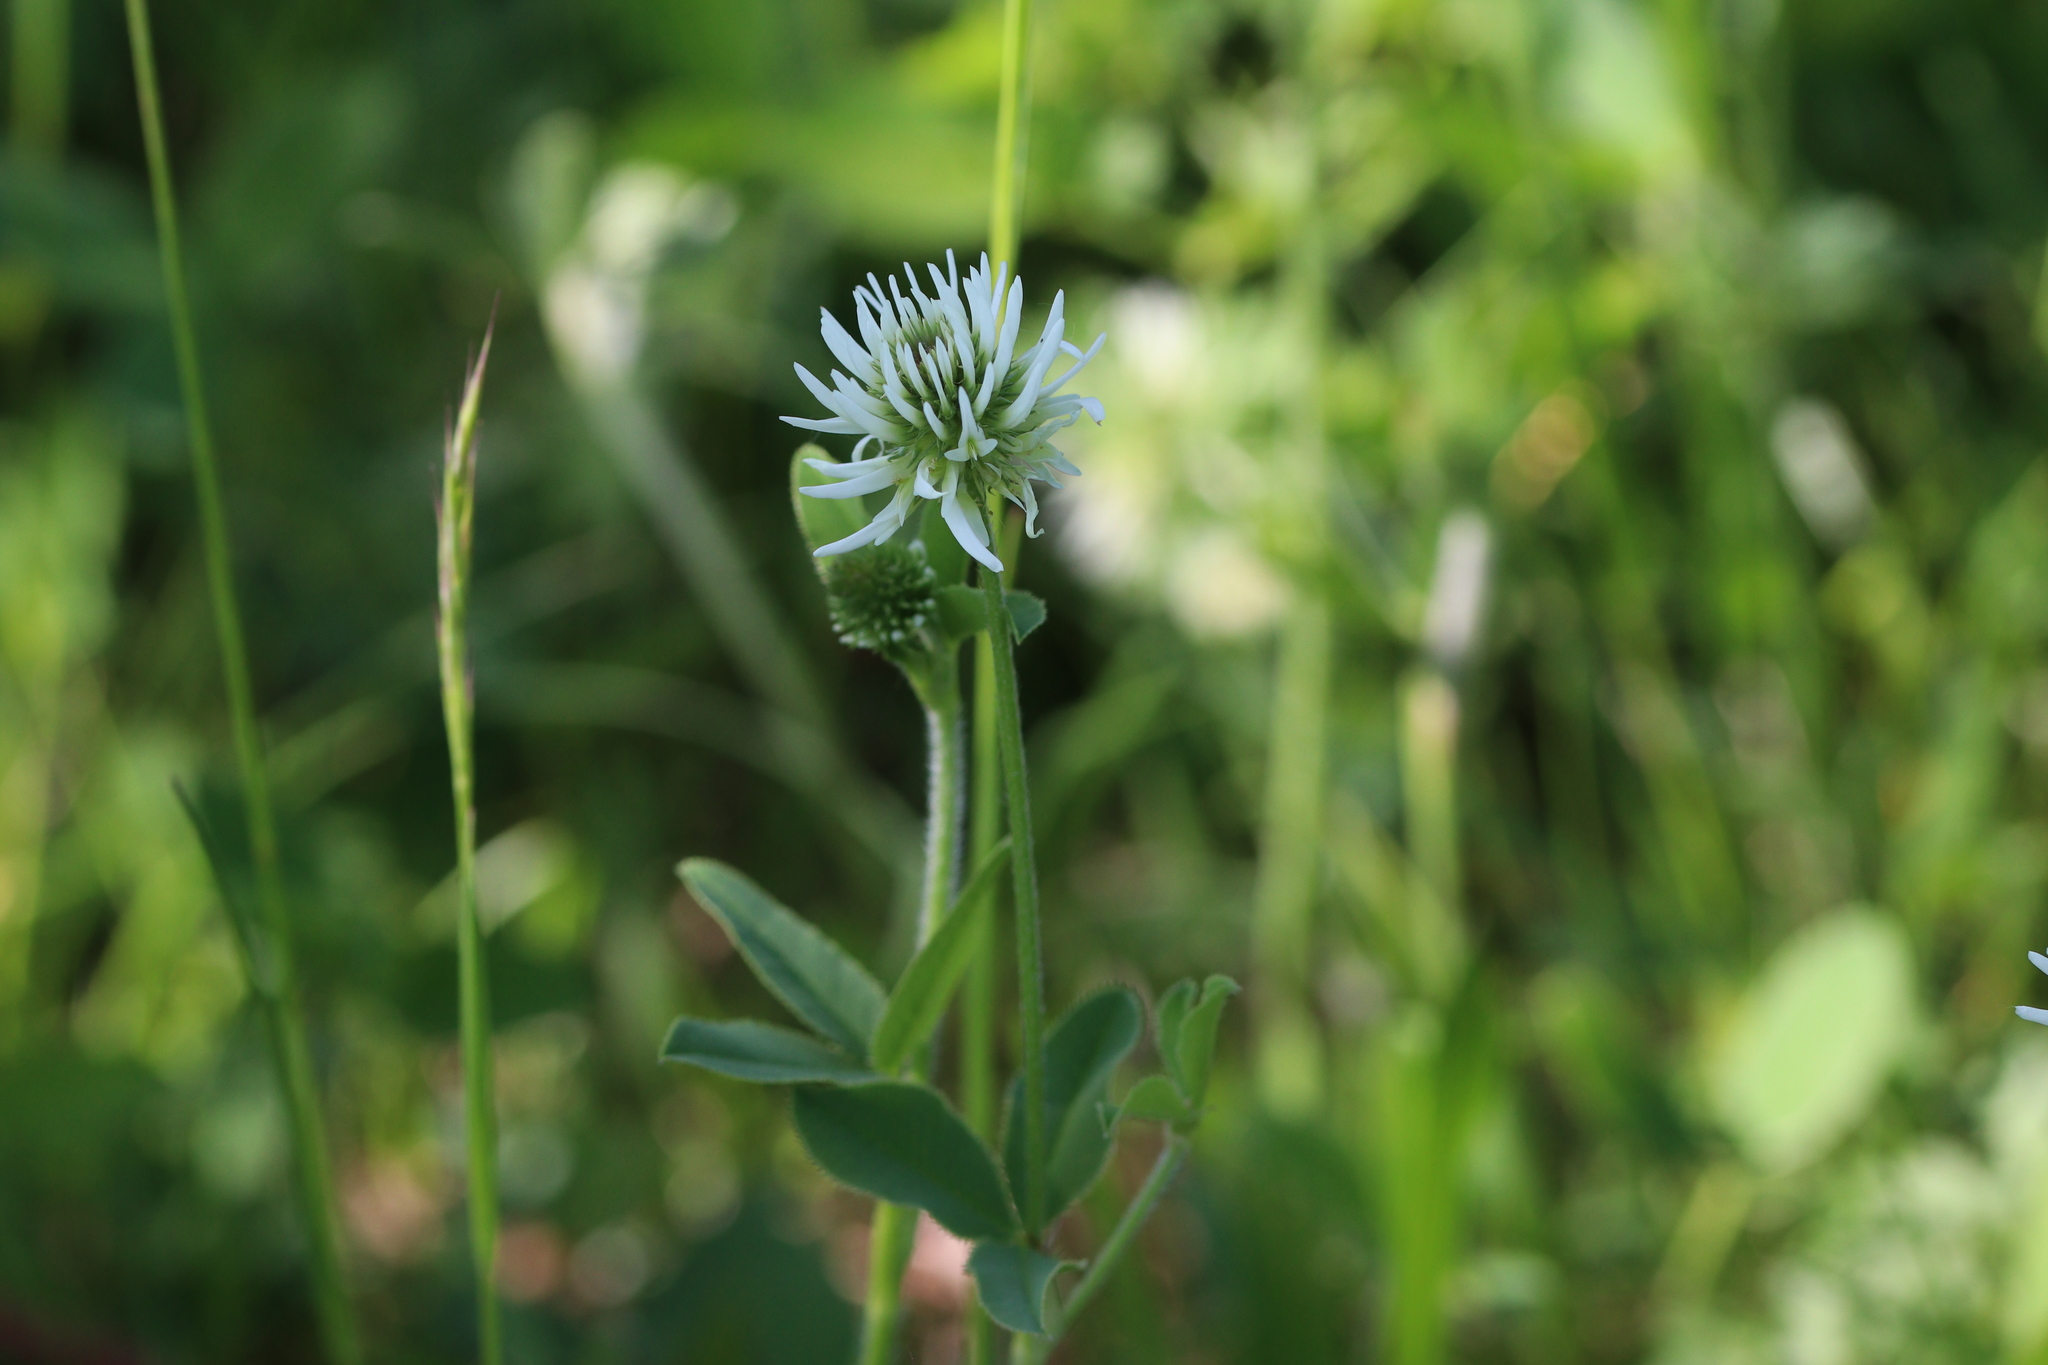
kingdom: Plantae
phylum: Tracheophyta
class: Magnoliopsida
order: Fabales
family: Fabaceae
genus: Trifolium
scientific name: Trifolium montanum
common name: Mountain clover
